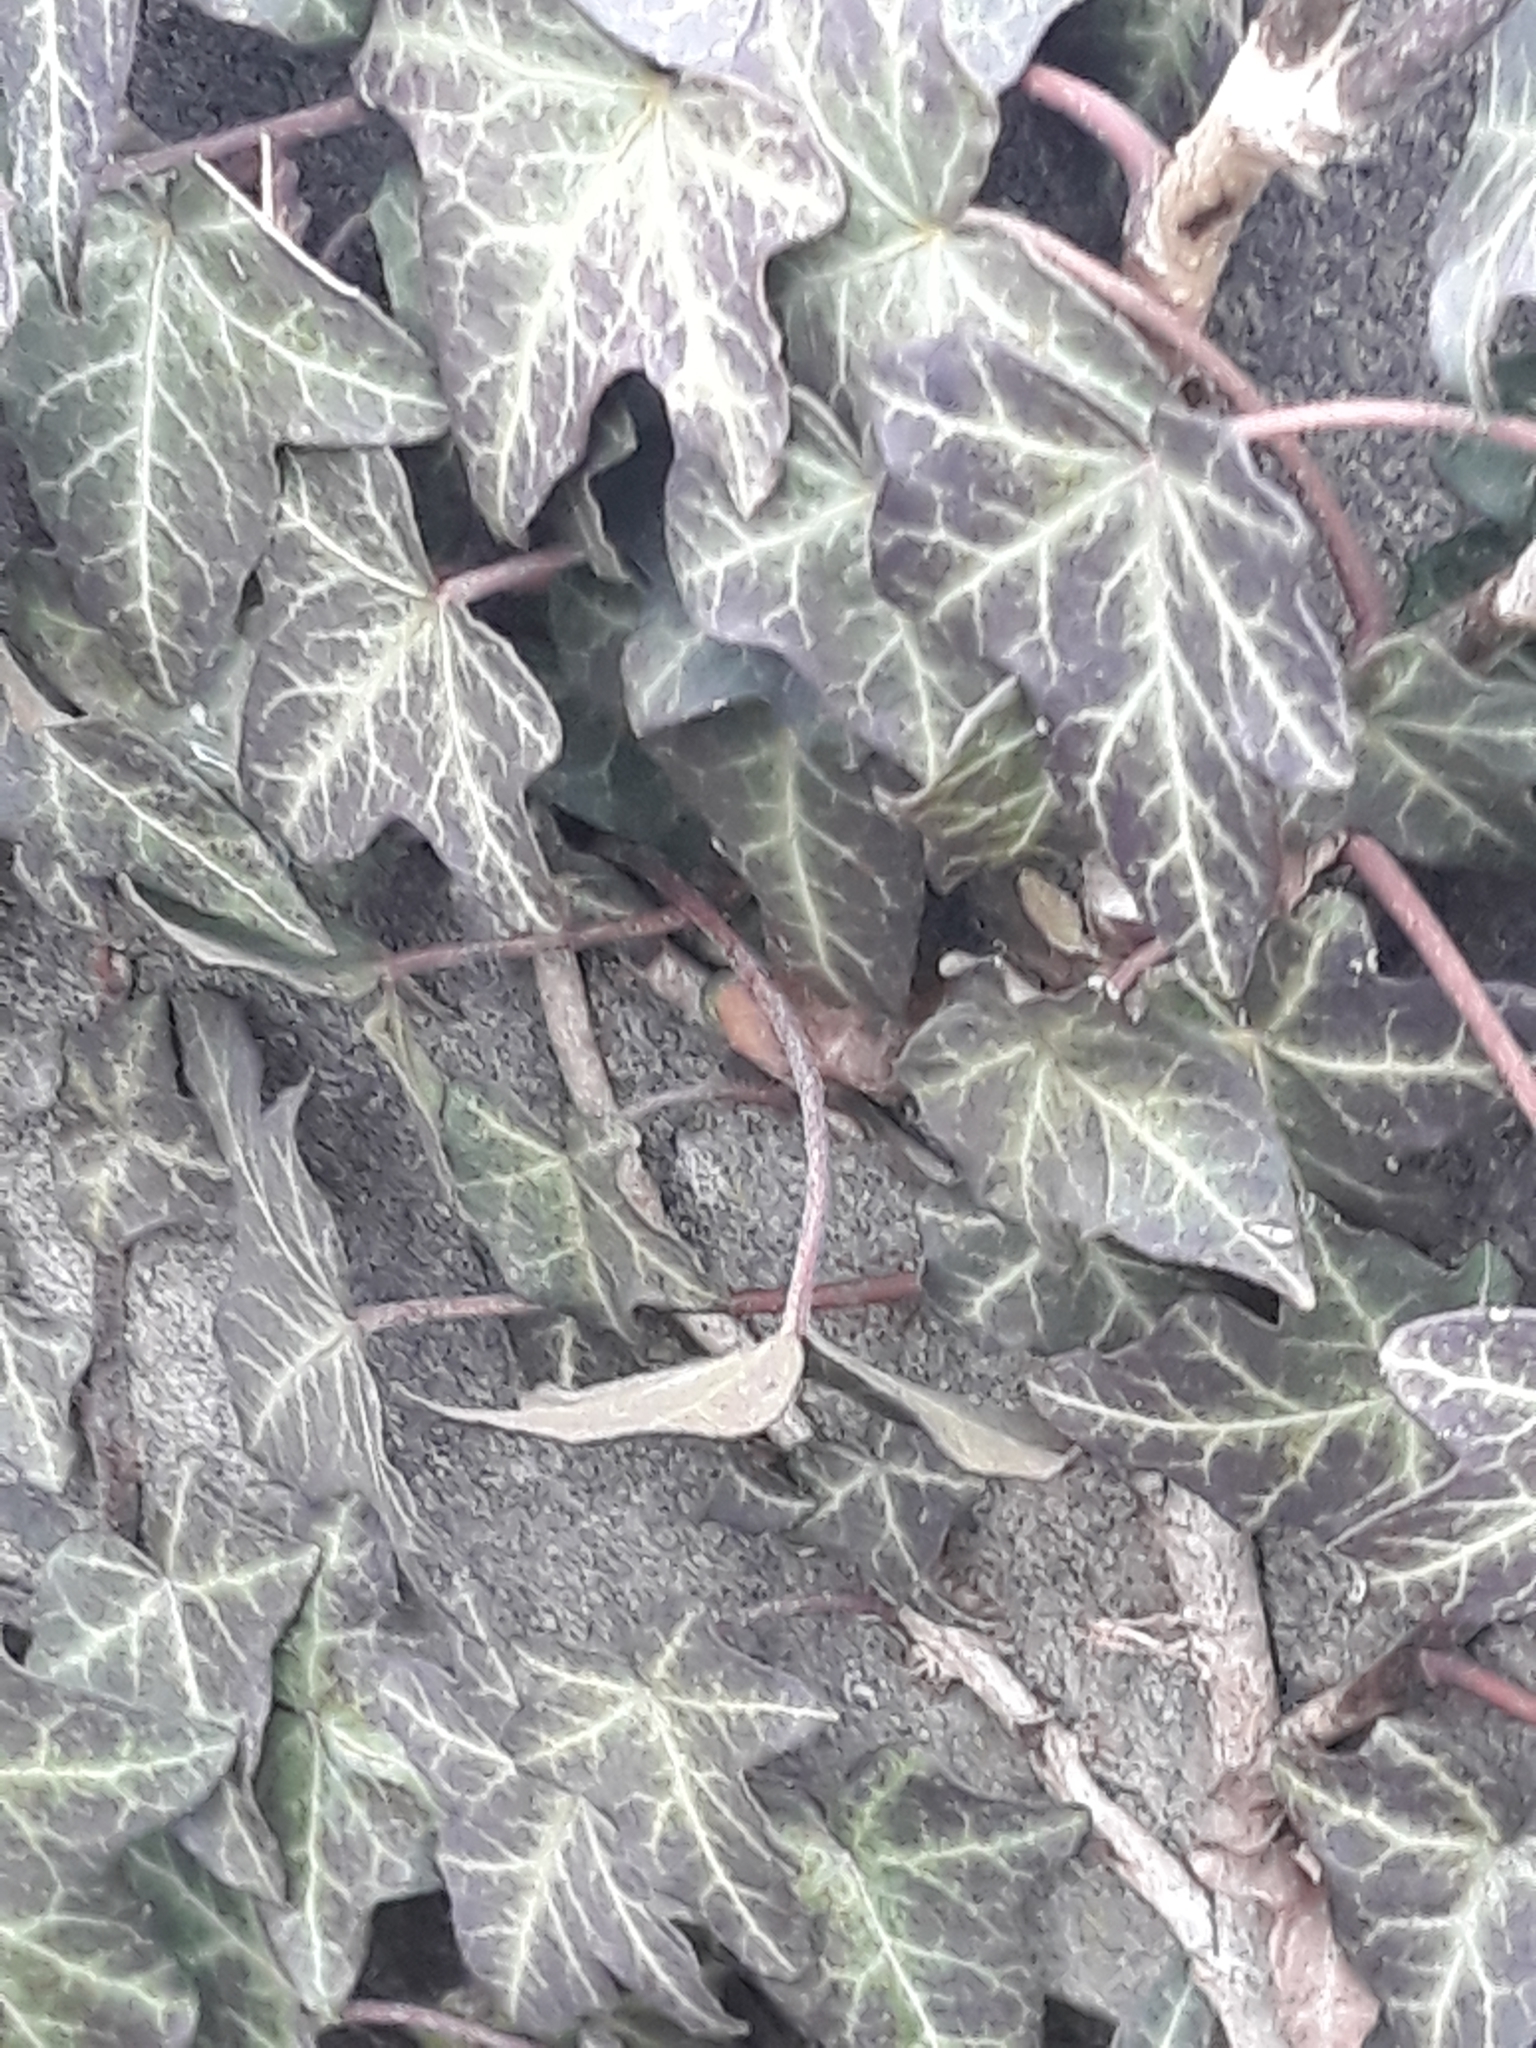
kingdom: Plantae
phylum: Tracheophyta
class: Magnoliopsida
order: Apiales
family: Araliaceae
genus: Hedera
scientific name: Hedera helix
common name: Ivy
